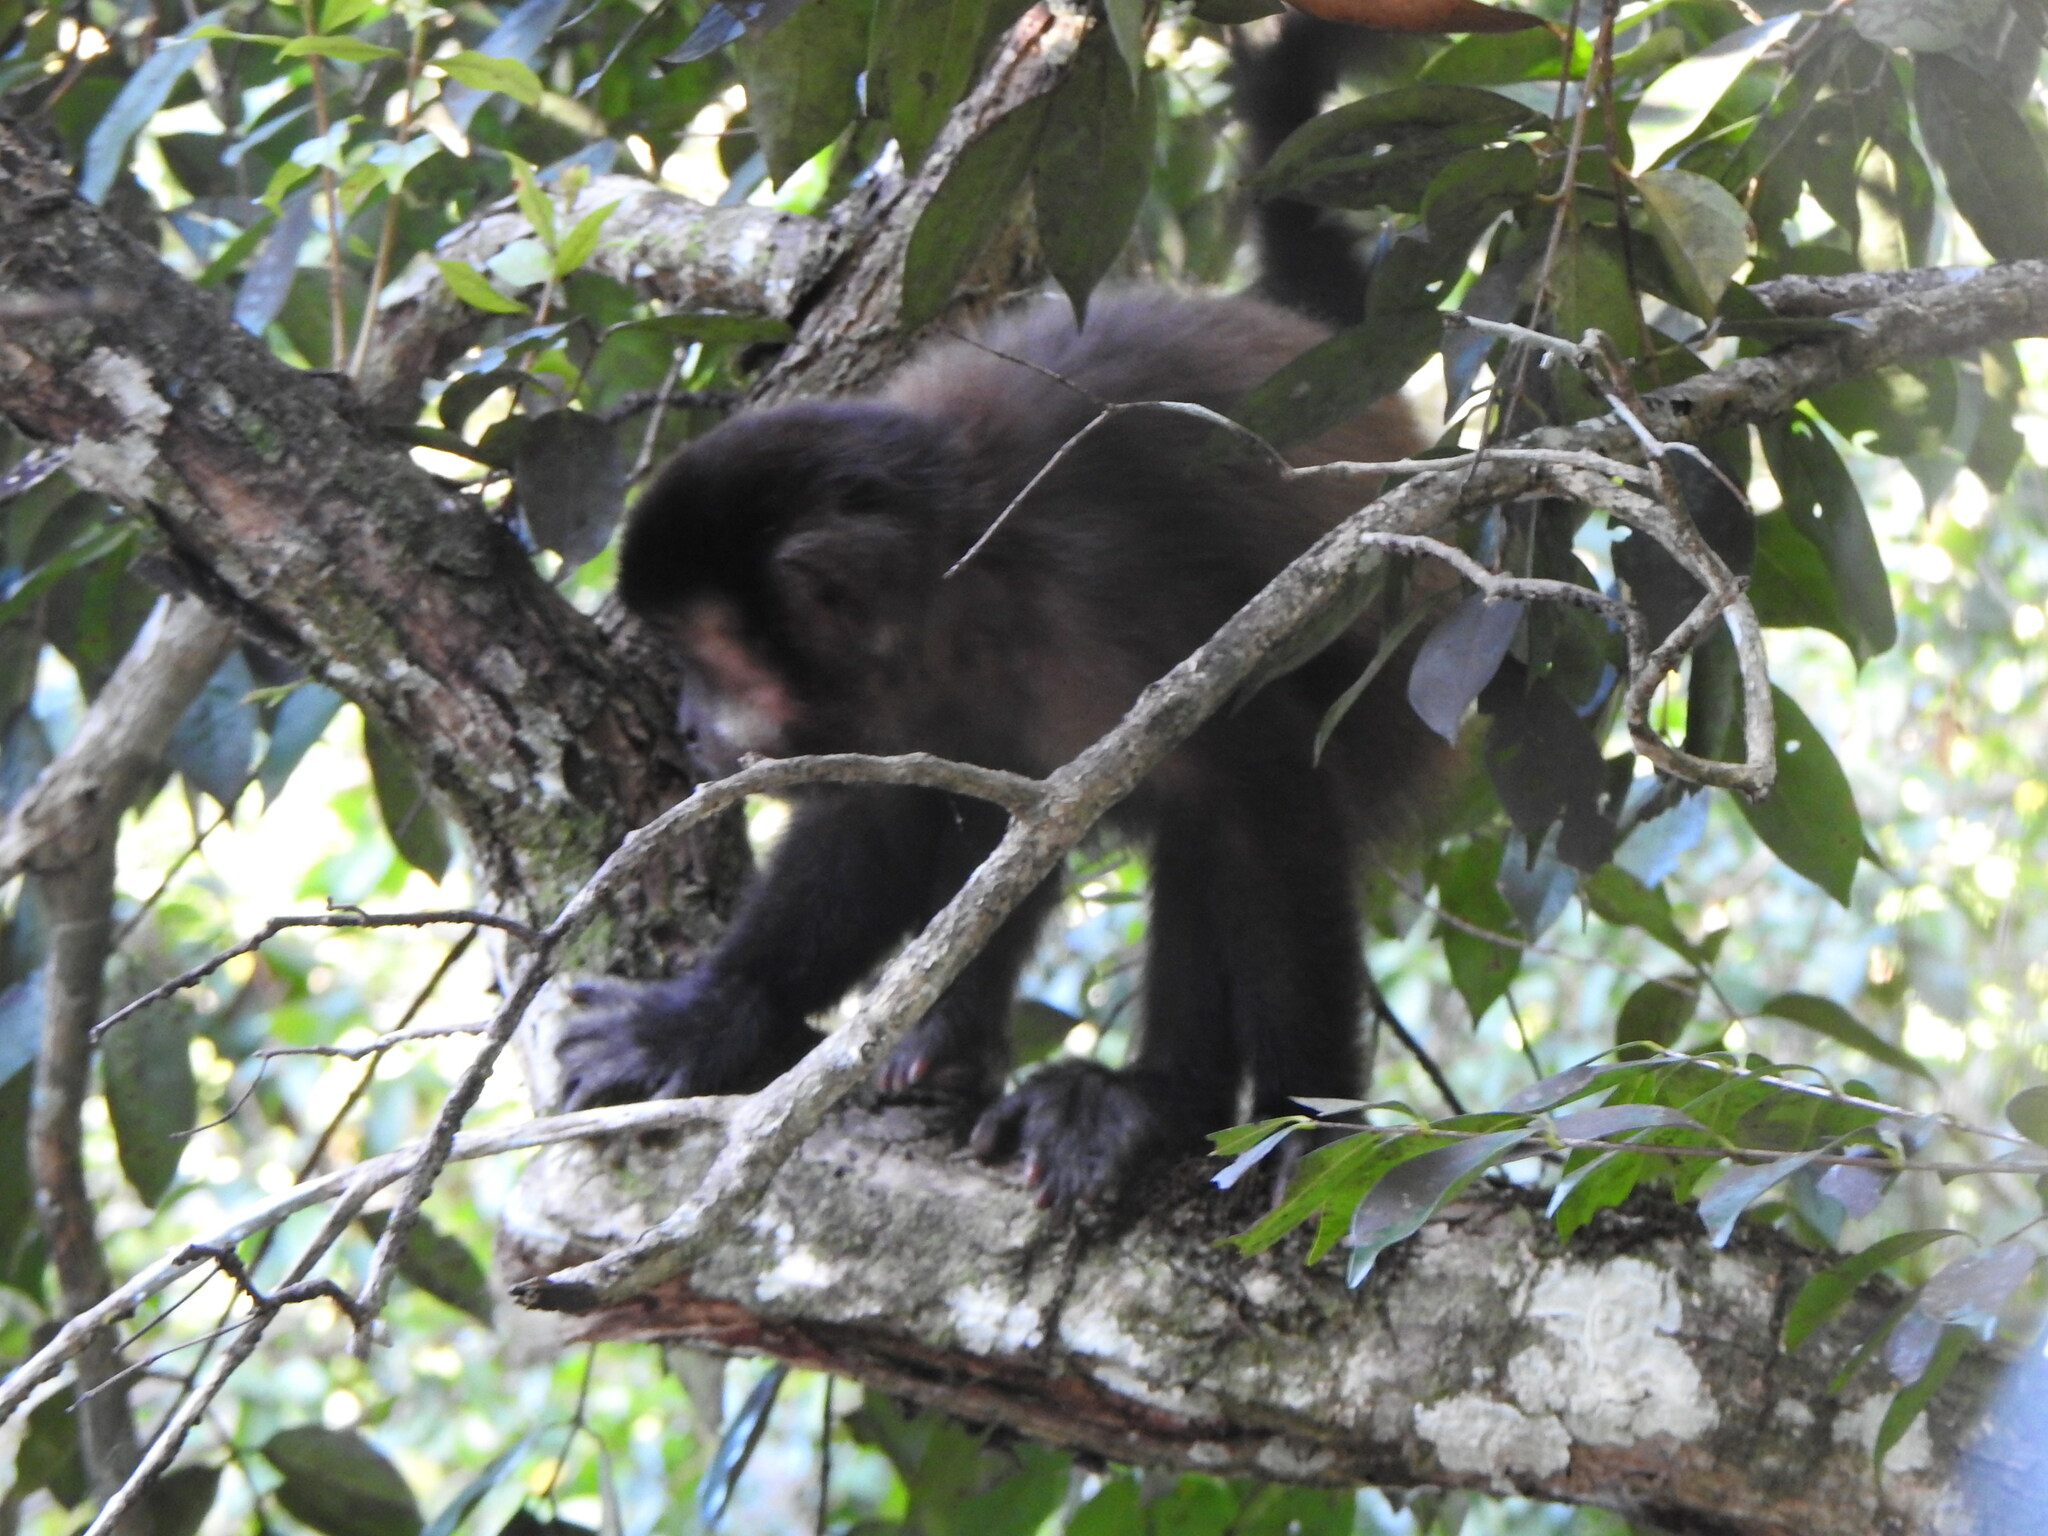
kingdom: Animalia
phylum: Chordata
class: Mammalia
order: Primates
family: Cebidae
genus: Sapajus
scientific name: Sapajus nigritus
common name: Black capuchin
